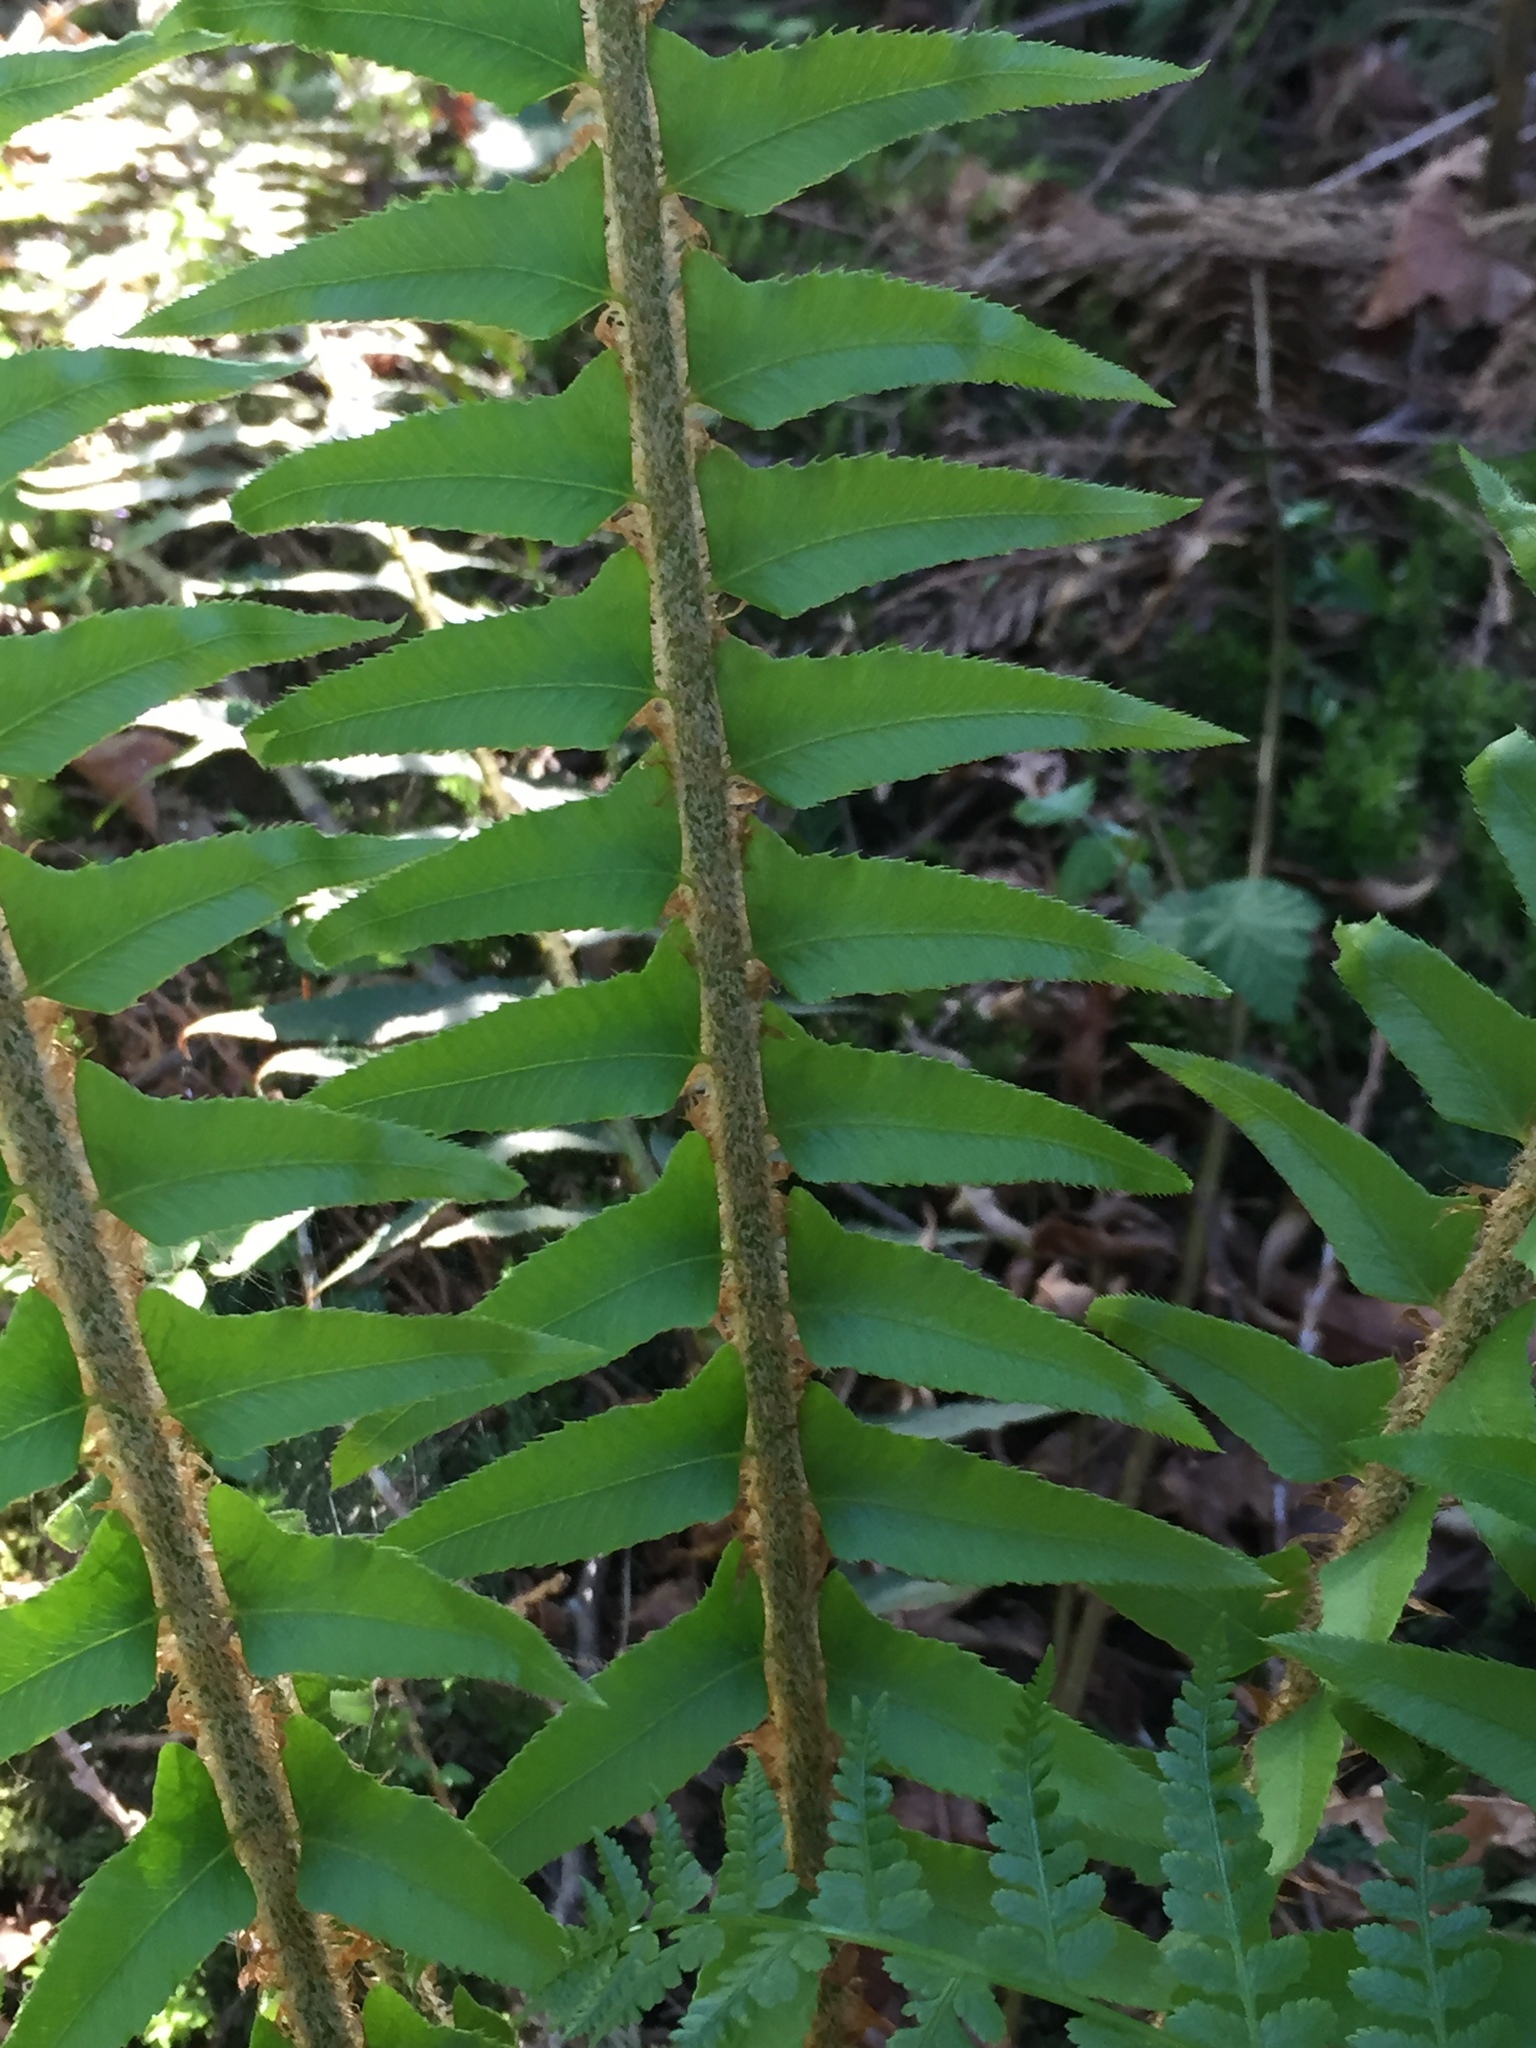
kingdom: Plantae
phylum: Tracheophyta
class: Polypodiopsida
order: Polypodiales
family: Dryopteridaceae
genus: Polystichum
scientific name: Polystichum munitum
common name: Western sword-fern
